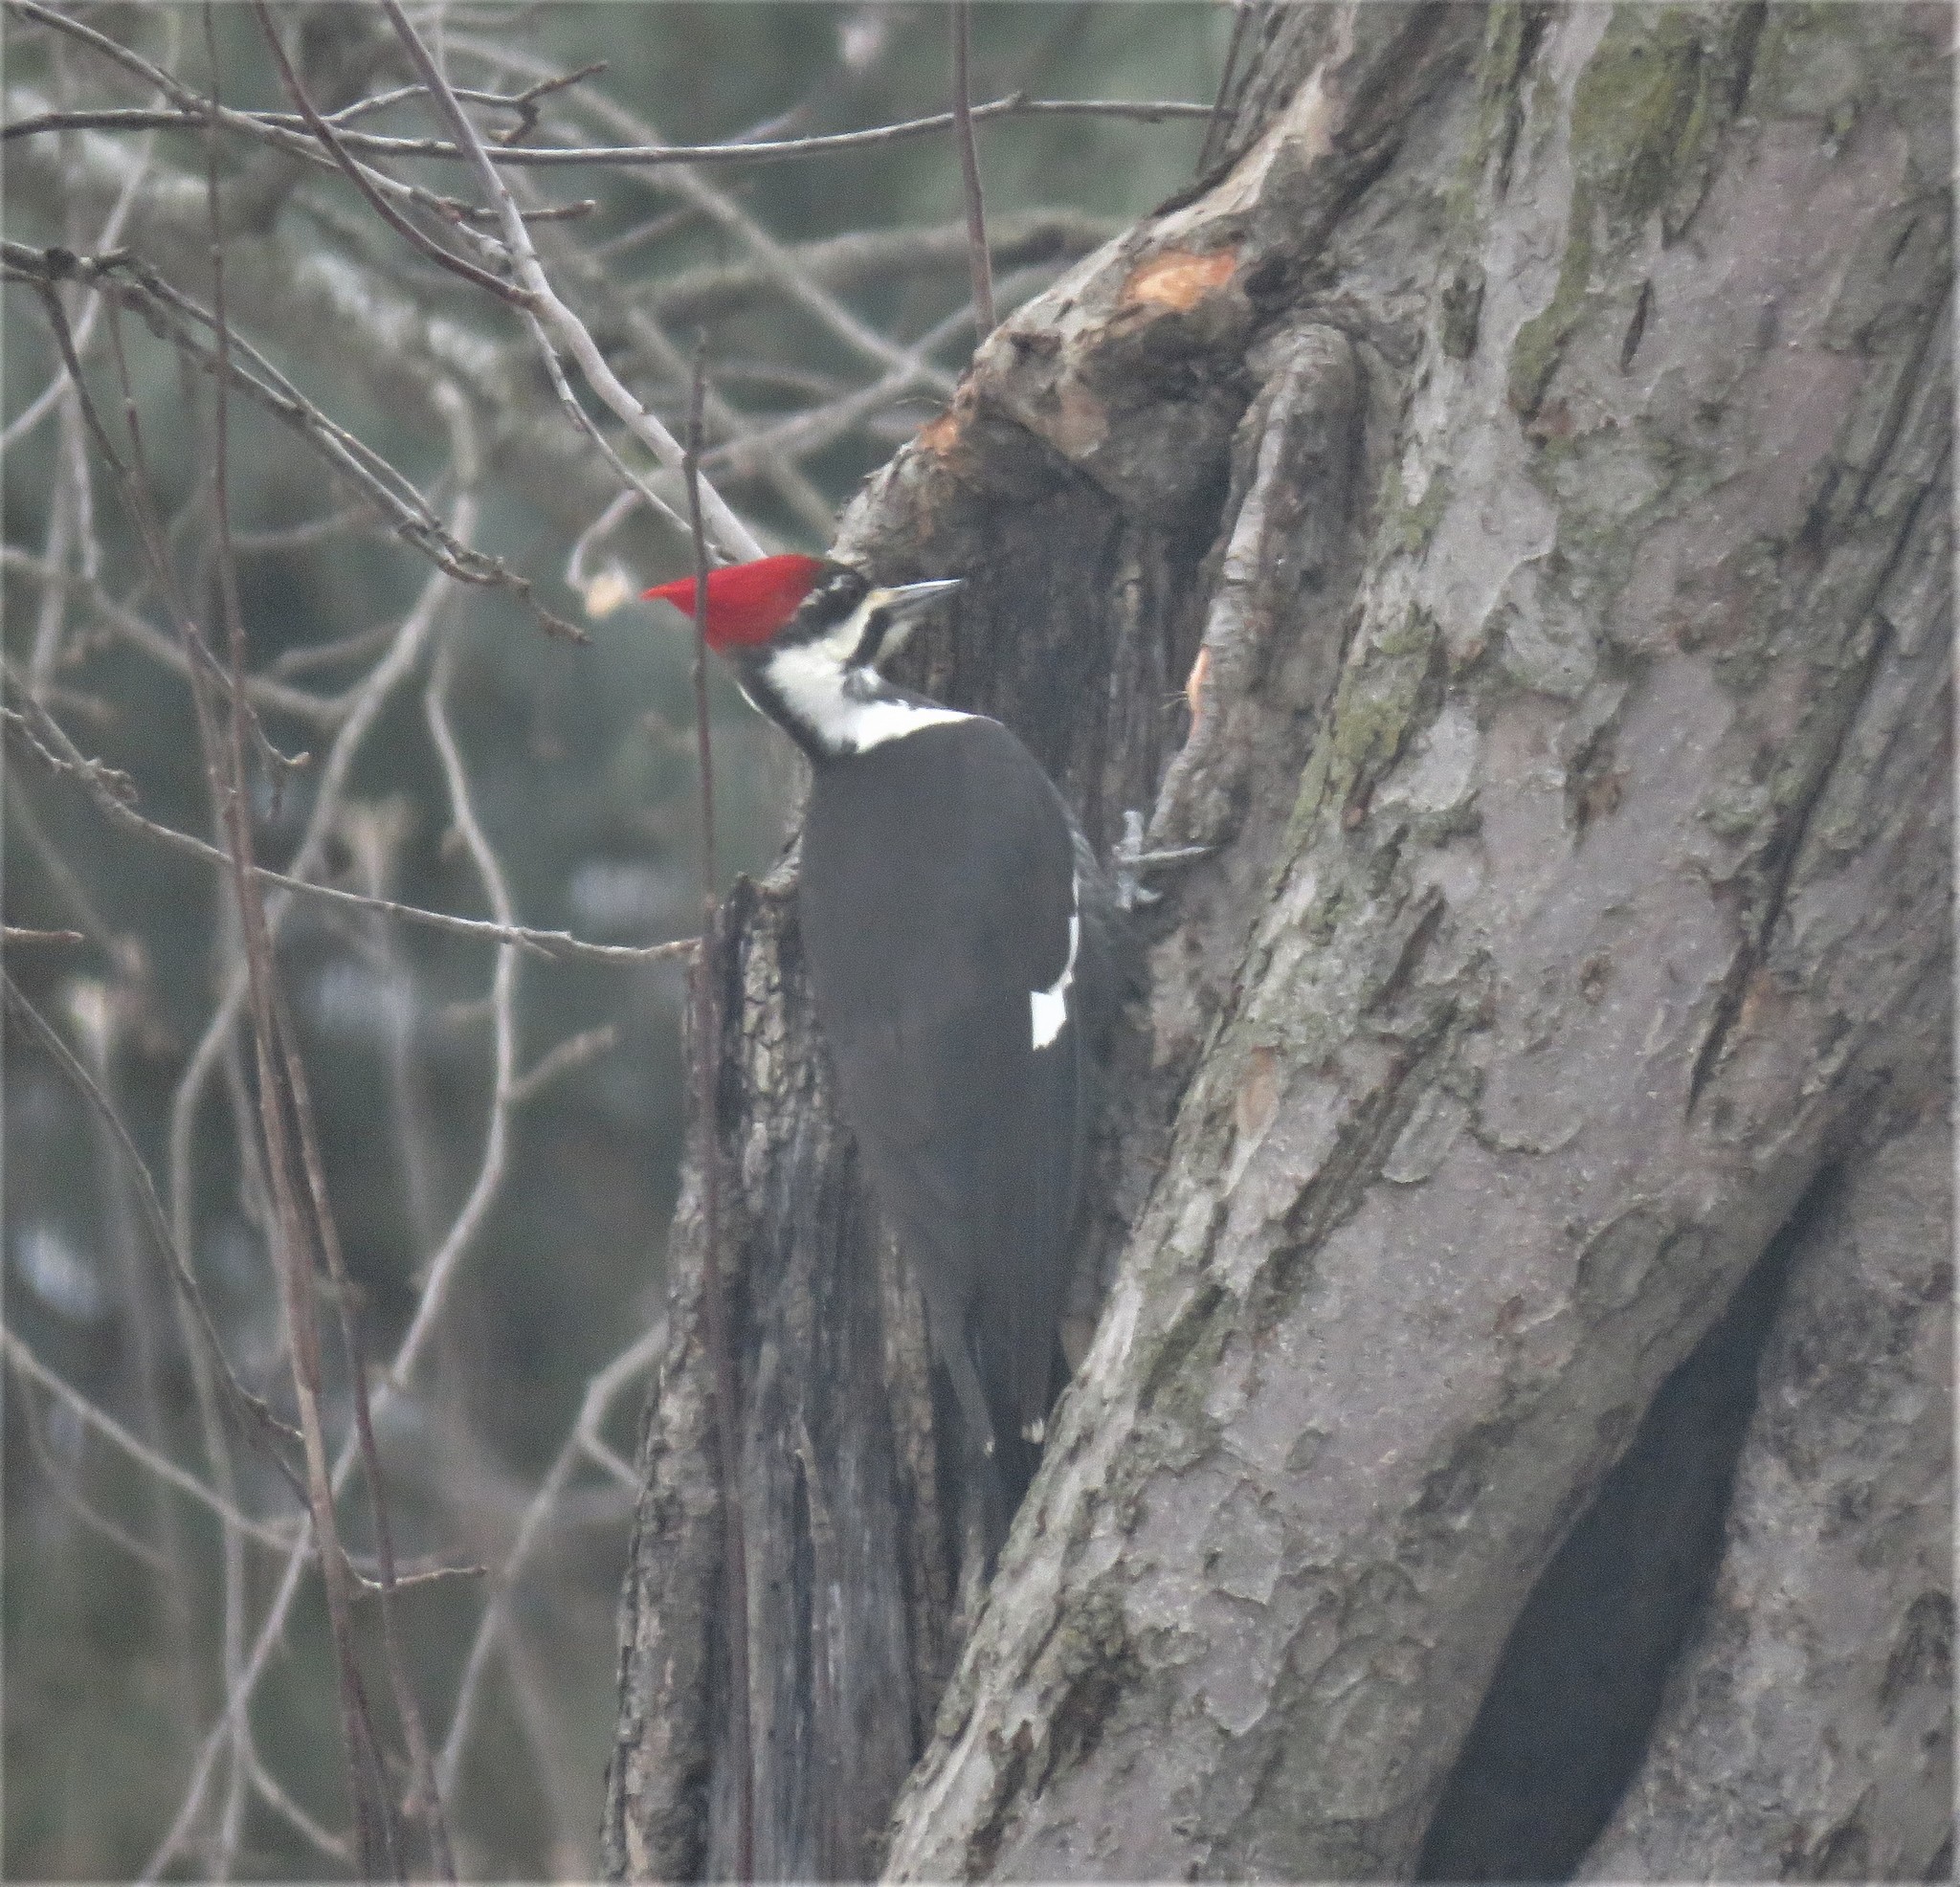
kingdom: Animalia
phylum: Chordata
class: Aves
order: Piciformes
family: Picidae
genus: Dryocopus
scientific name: Dryocopus pileatus
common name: Pileated woodpecker
